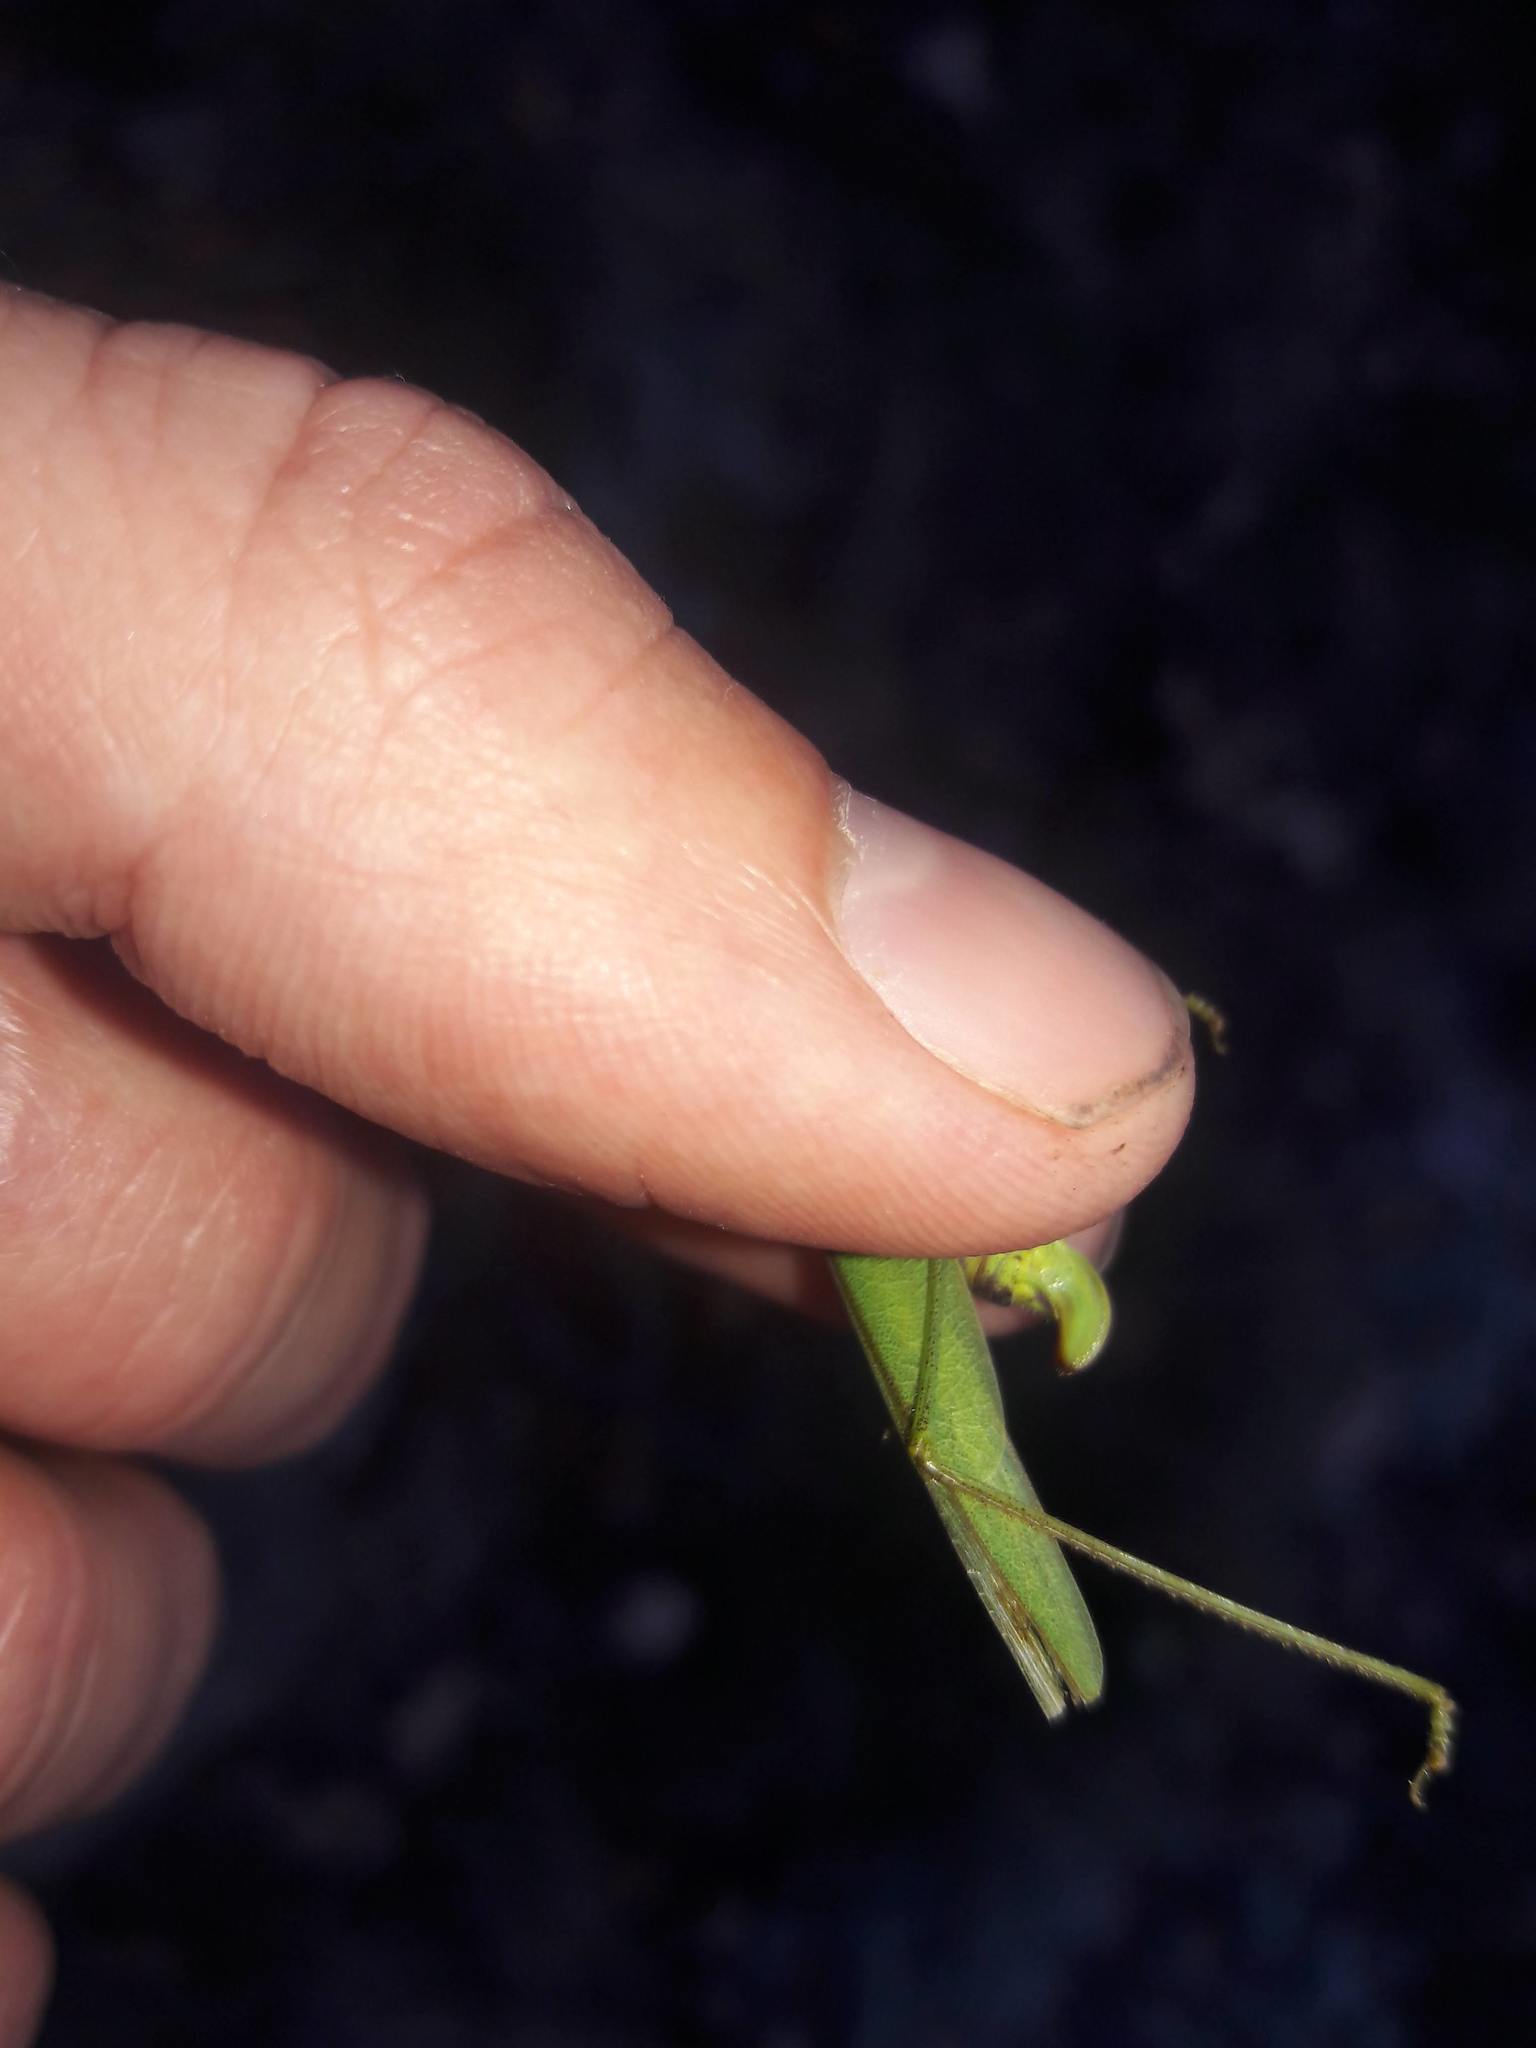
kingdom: Animalia
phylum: Arthropoda
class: Insecta
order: Orthoptera
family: Tettigoniidae
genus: Phaneroptera
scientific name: Phaneroptera nana
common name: Southern sickle bush-cricket
